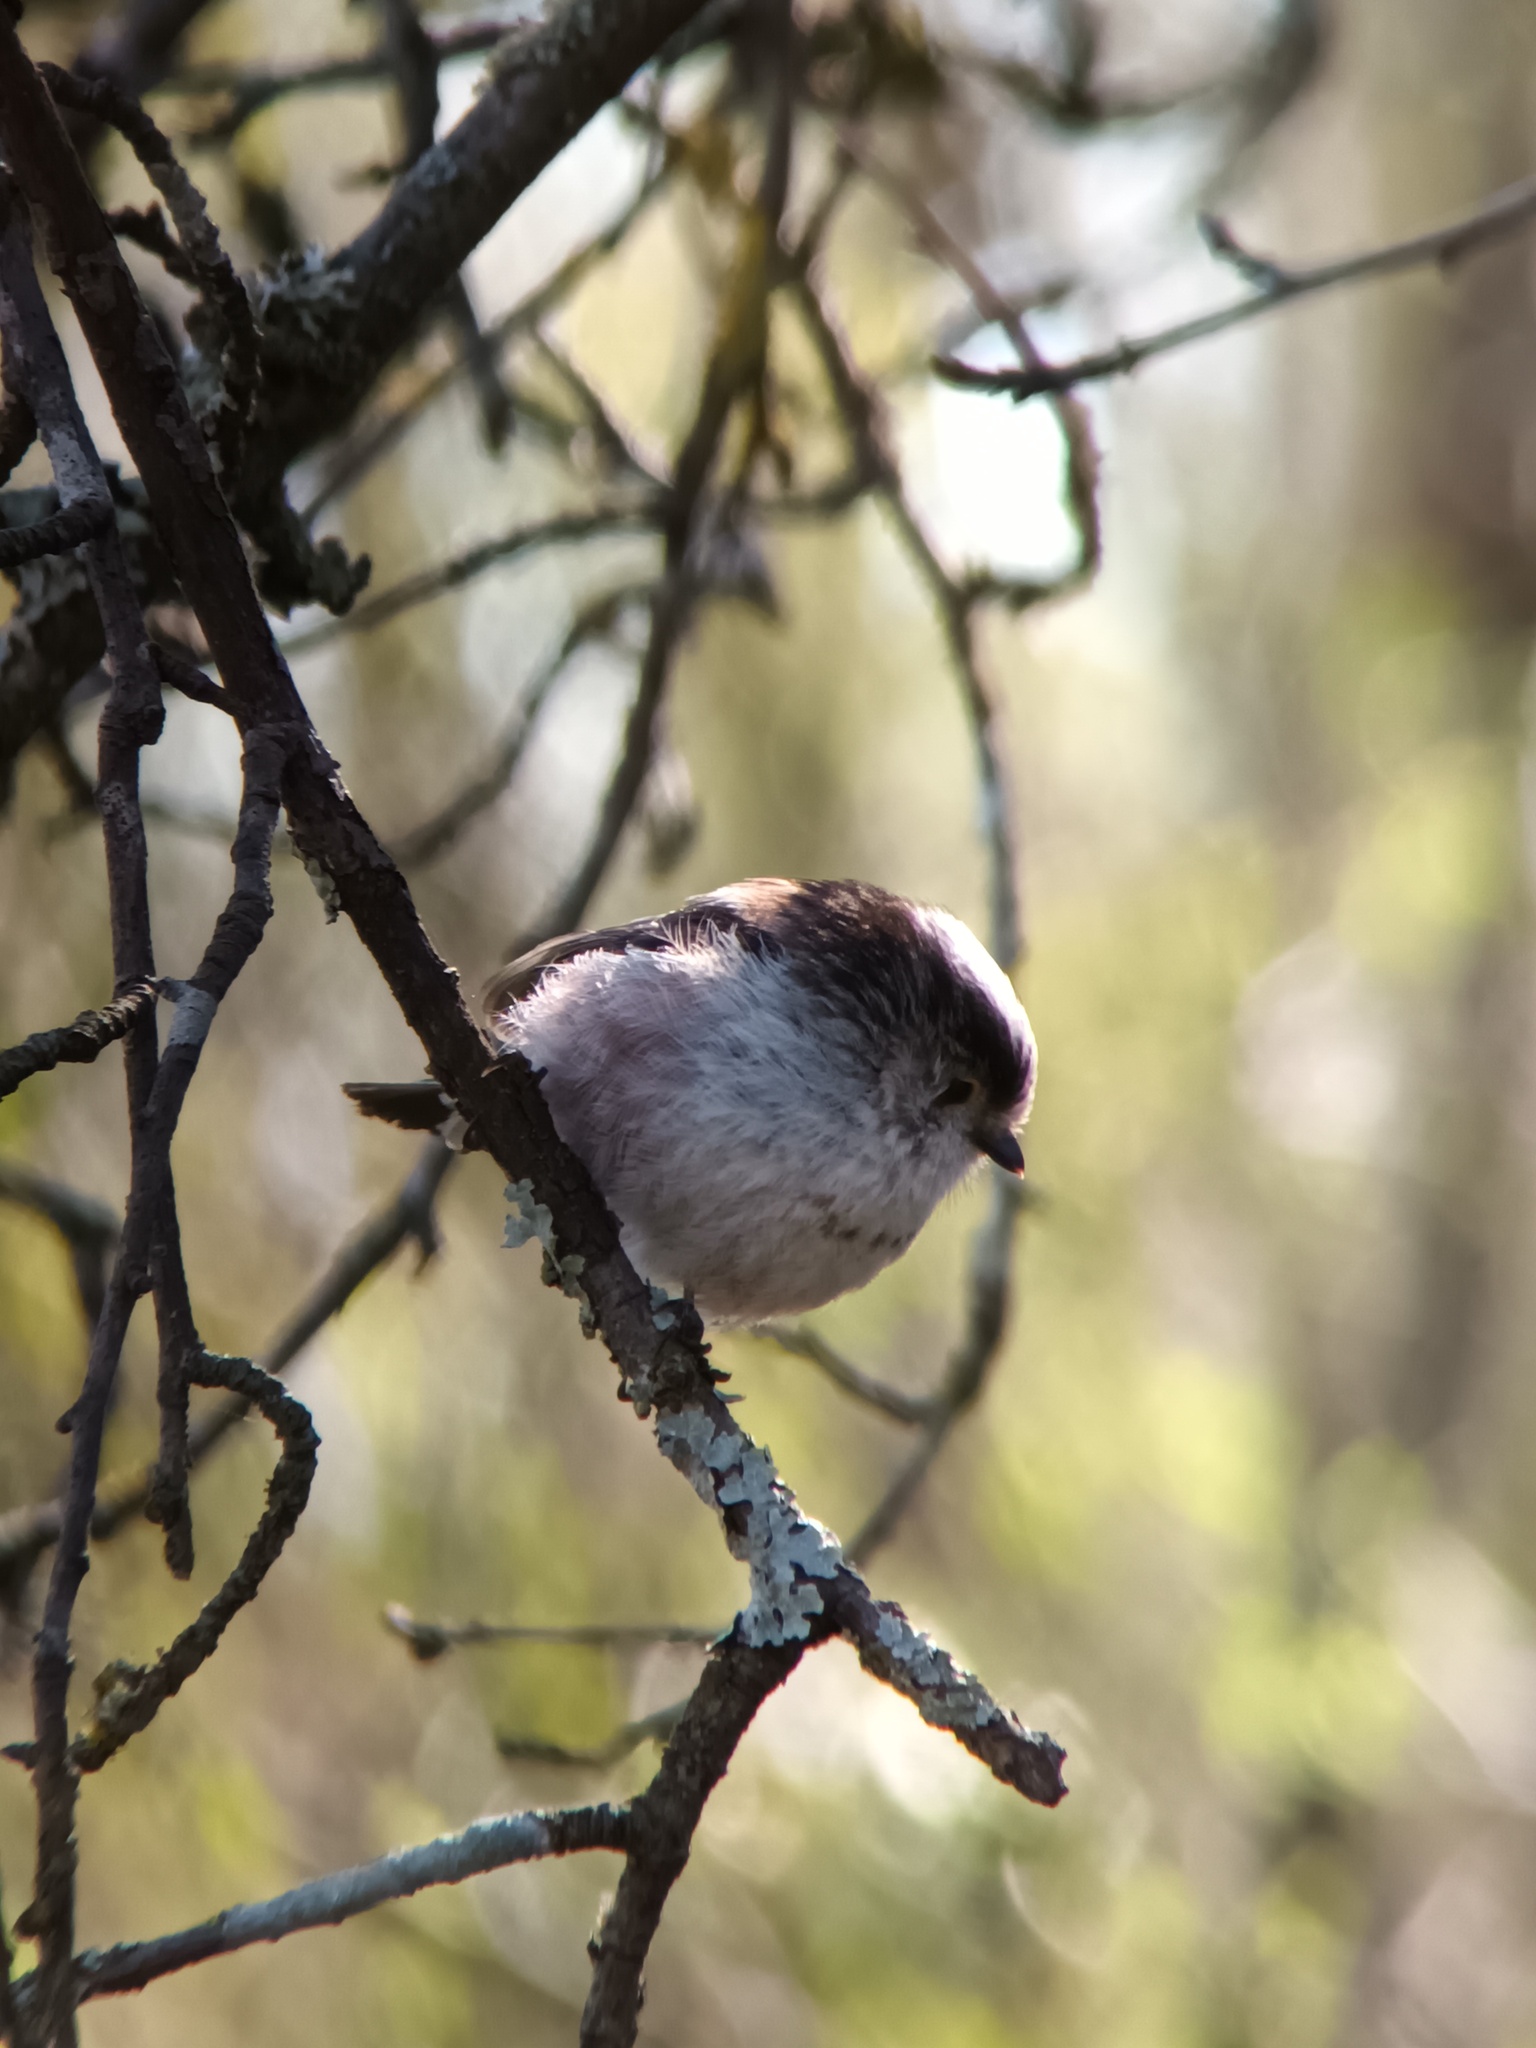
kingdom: Animalia
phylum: Chordata
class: Aves
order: Passeriformes
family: Aegithalidae
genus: Aegithalos
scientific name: Aegithalos caudatus
